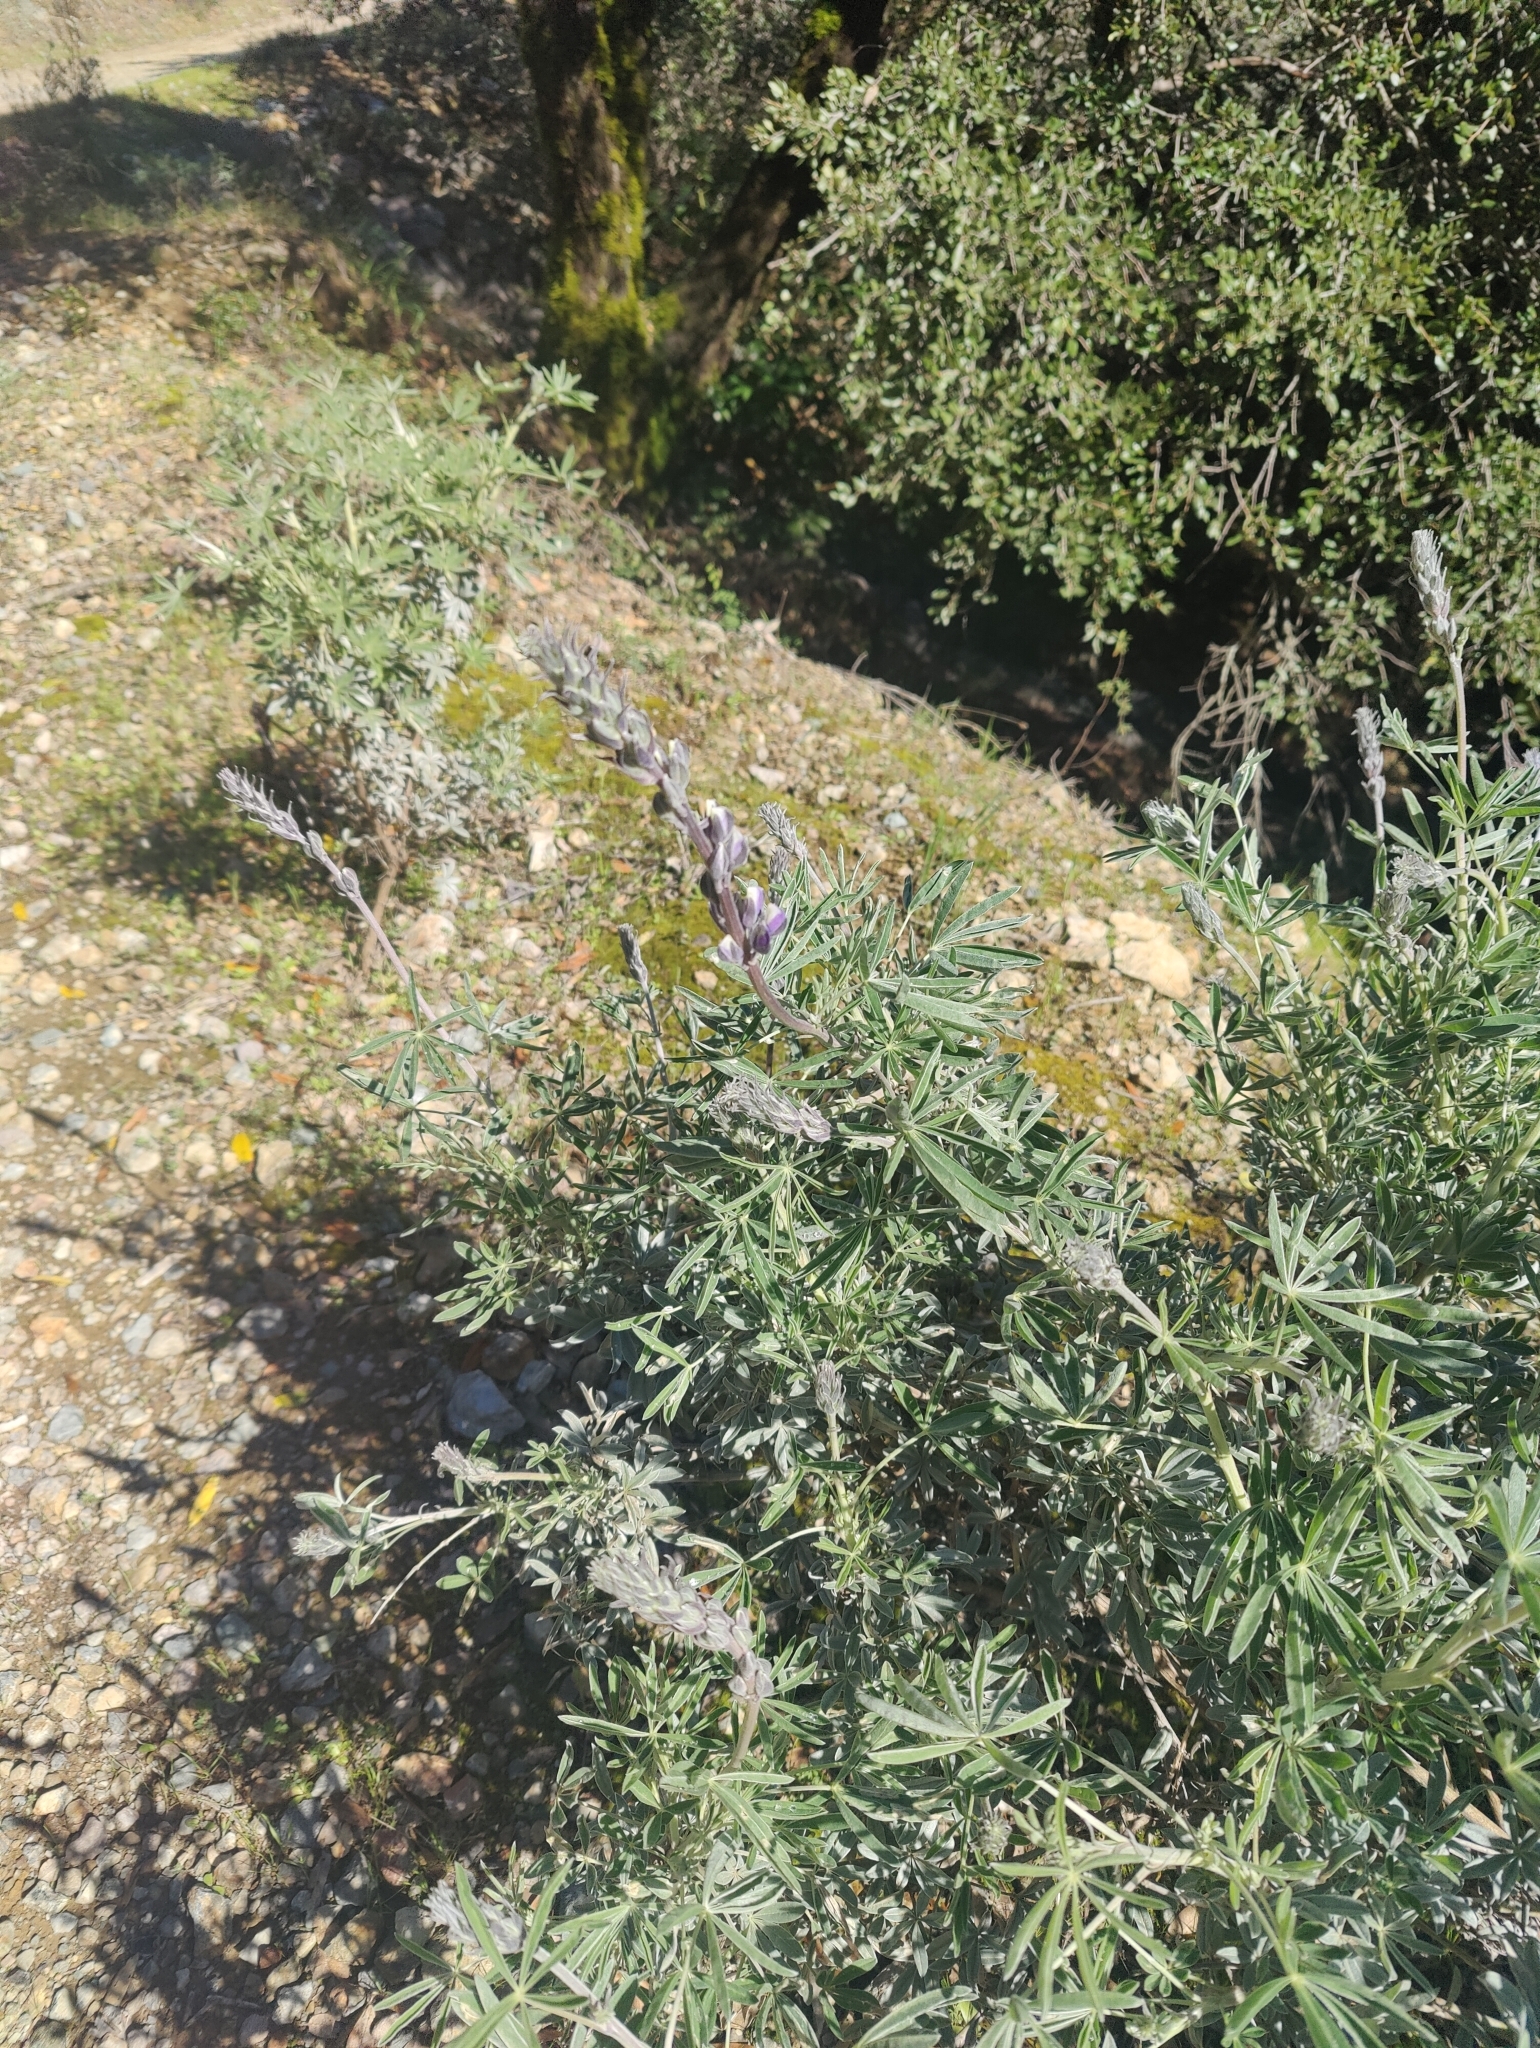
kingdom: Plantae
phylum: Tracheophyta
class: Magnoliopsida
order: Fabales
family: Fabaceae
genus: Lupinus
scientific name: Lupinus albifrons
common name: Foothill lupine
